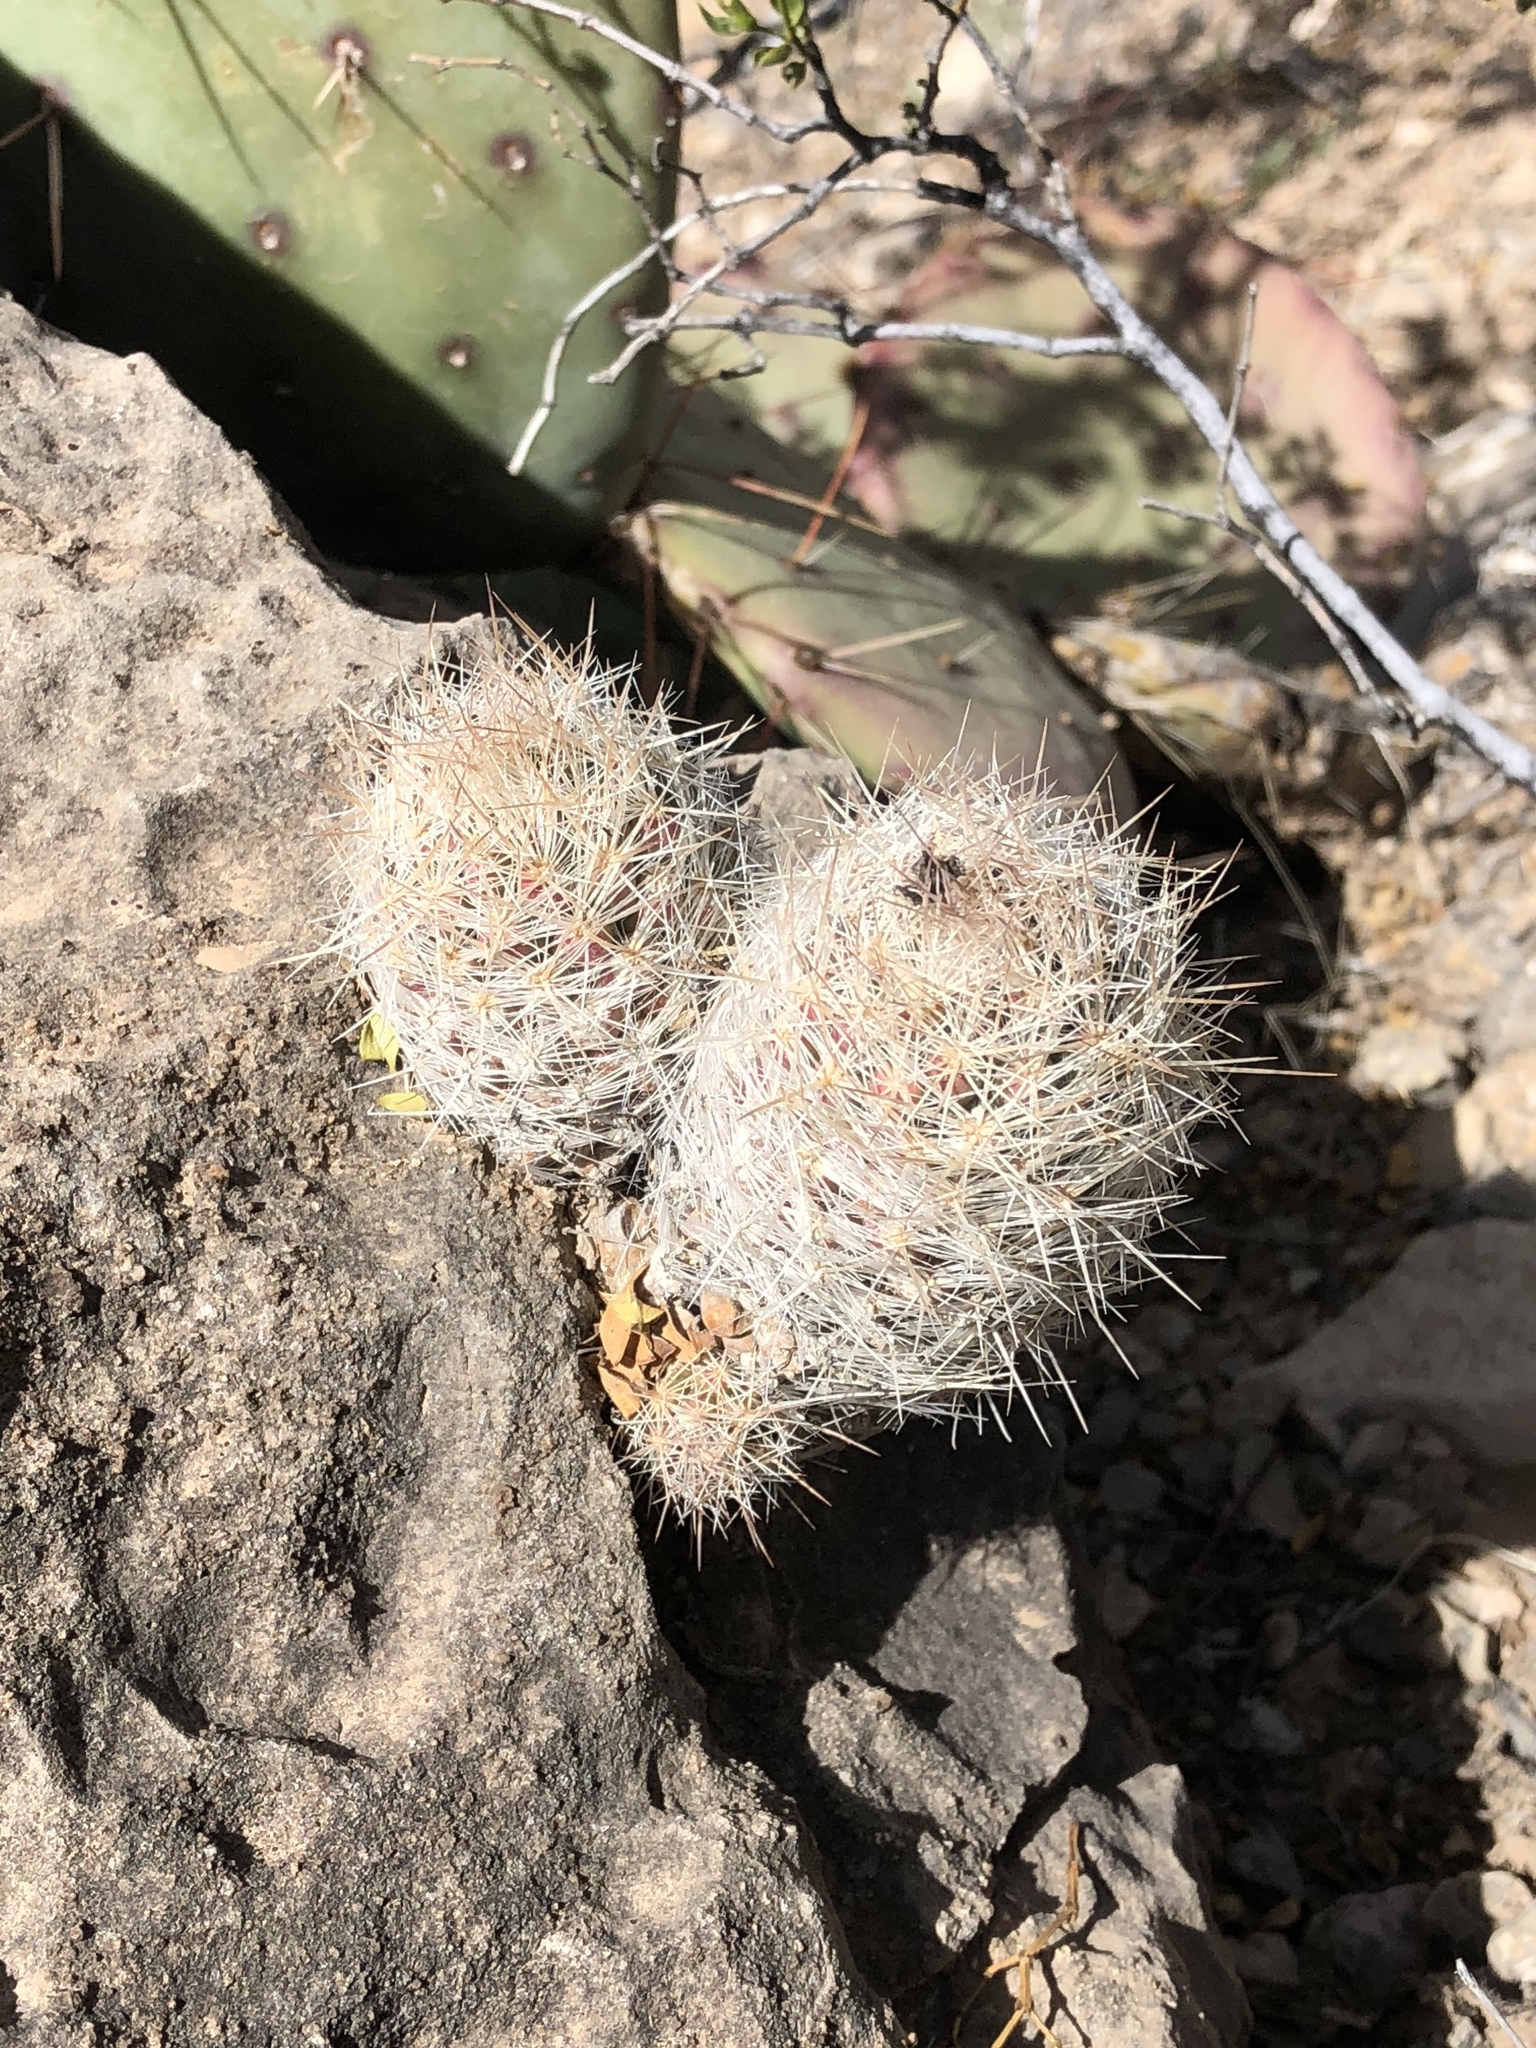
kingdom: Plantae
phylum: Tracheophyta
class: Magnoliopsida
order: Caryophyllales
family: Cactaceae
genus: Pelecyphora
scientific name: Pelecyphora tuberculosa
